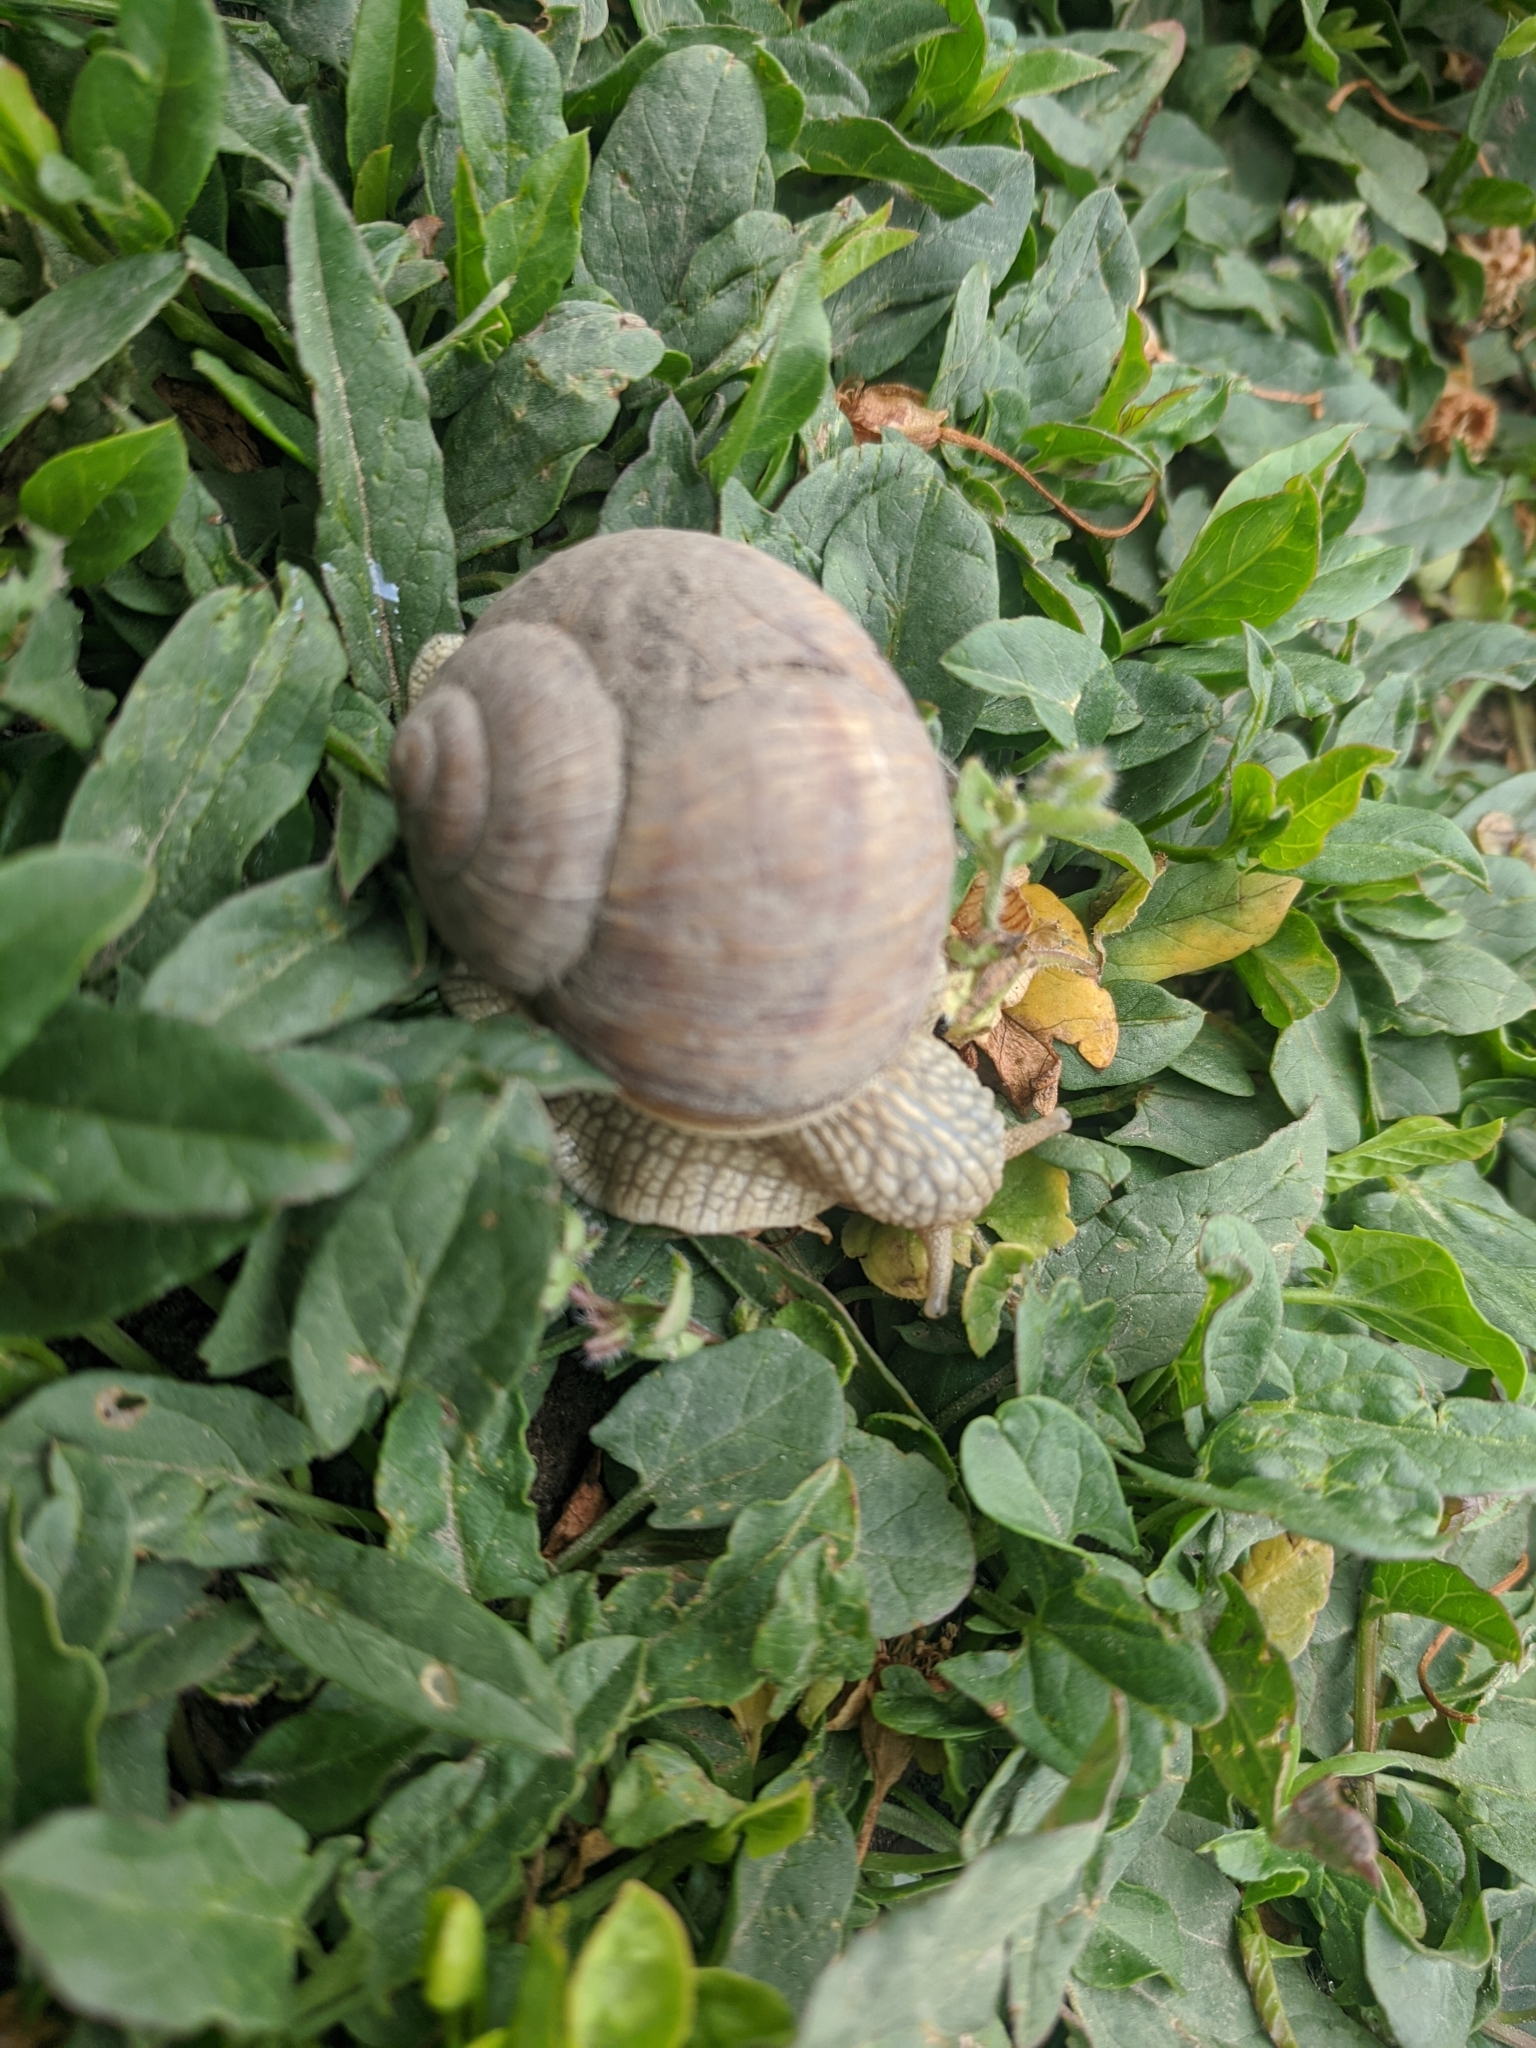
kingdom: Animalia
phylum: Mollusca
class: Gastropoda
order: Stylommatophora
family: Helicidae
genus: Helix
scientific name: Helix pomatia
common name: Roman snail
